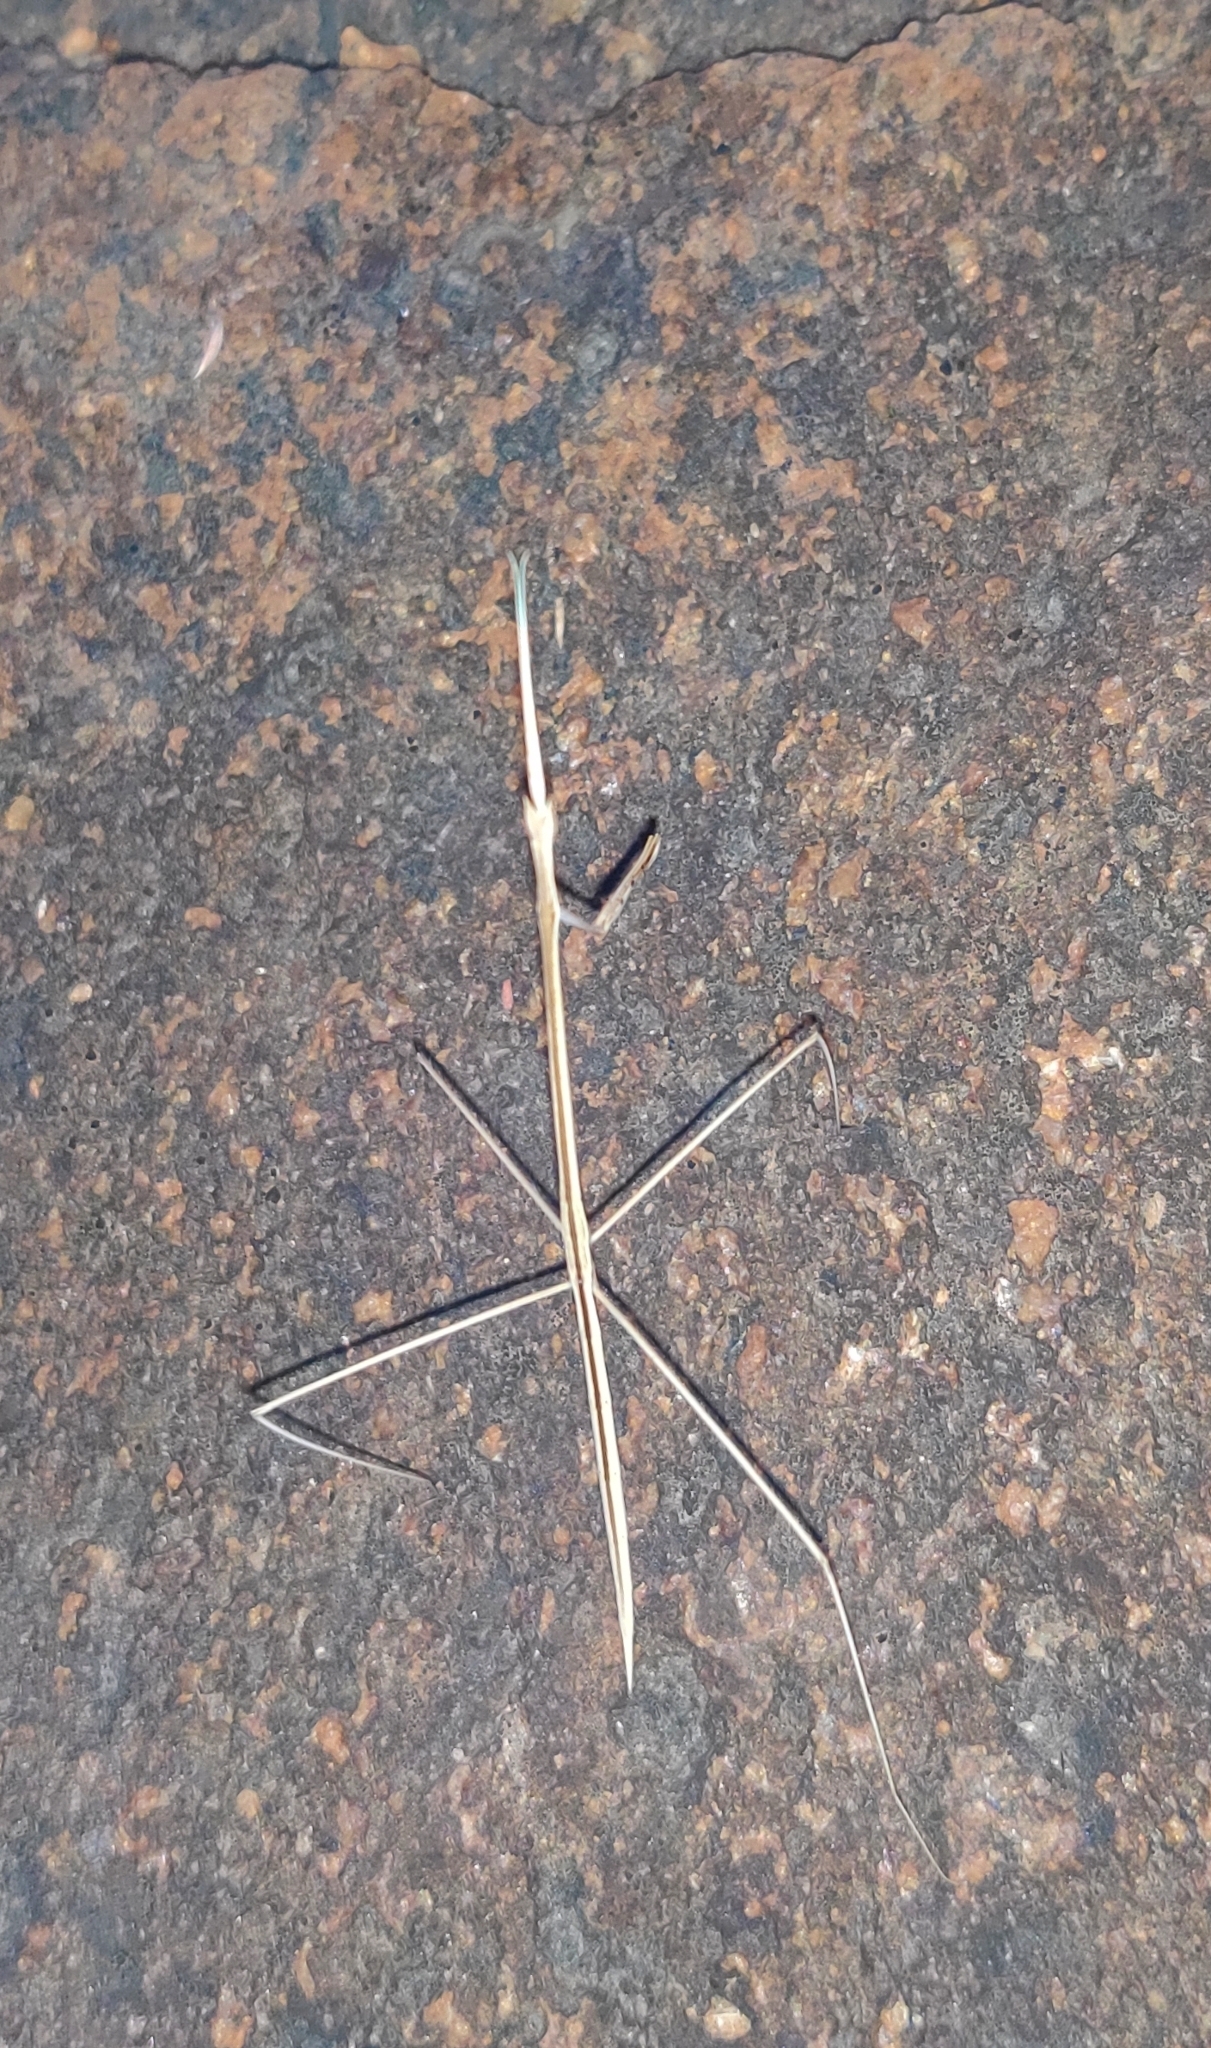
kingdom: Animalia
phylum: Arthropoda
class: Insecta
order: Mantodea
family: Eremiaphilidae
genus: Schizocephala
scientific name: Schizocephala bicornis
